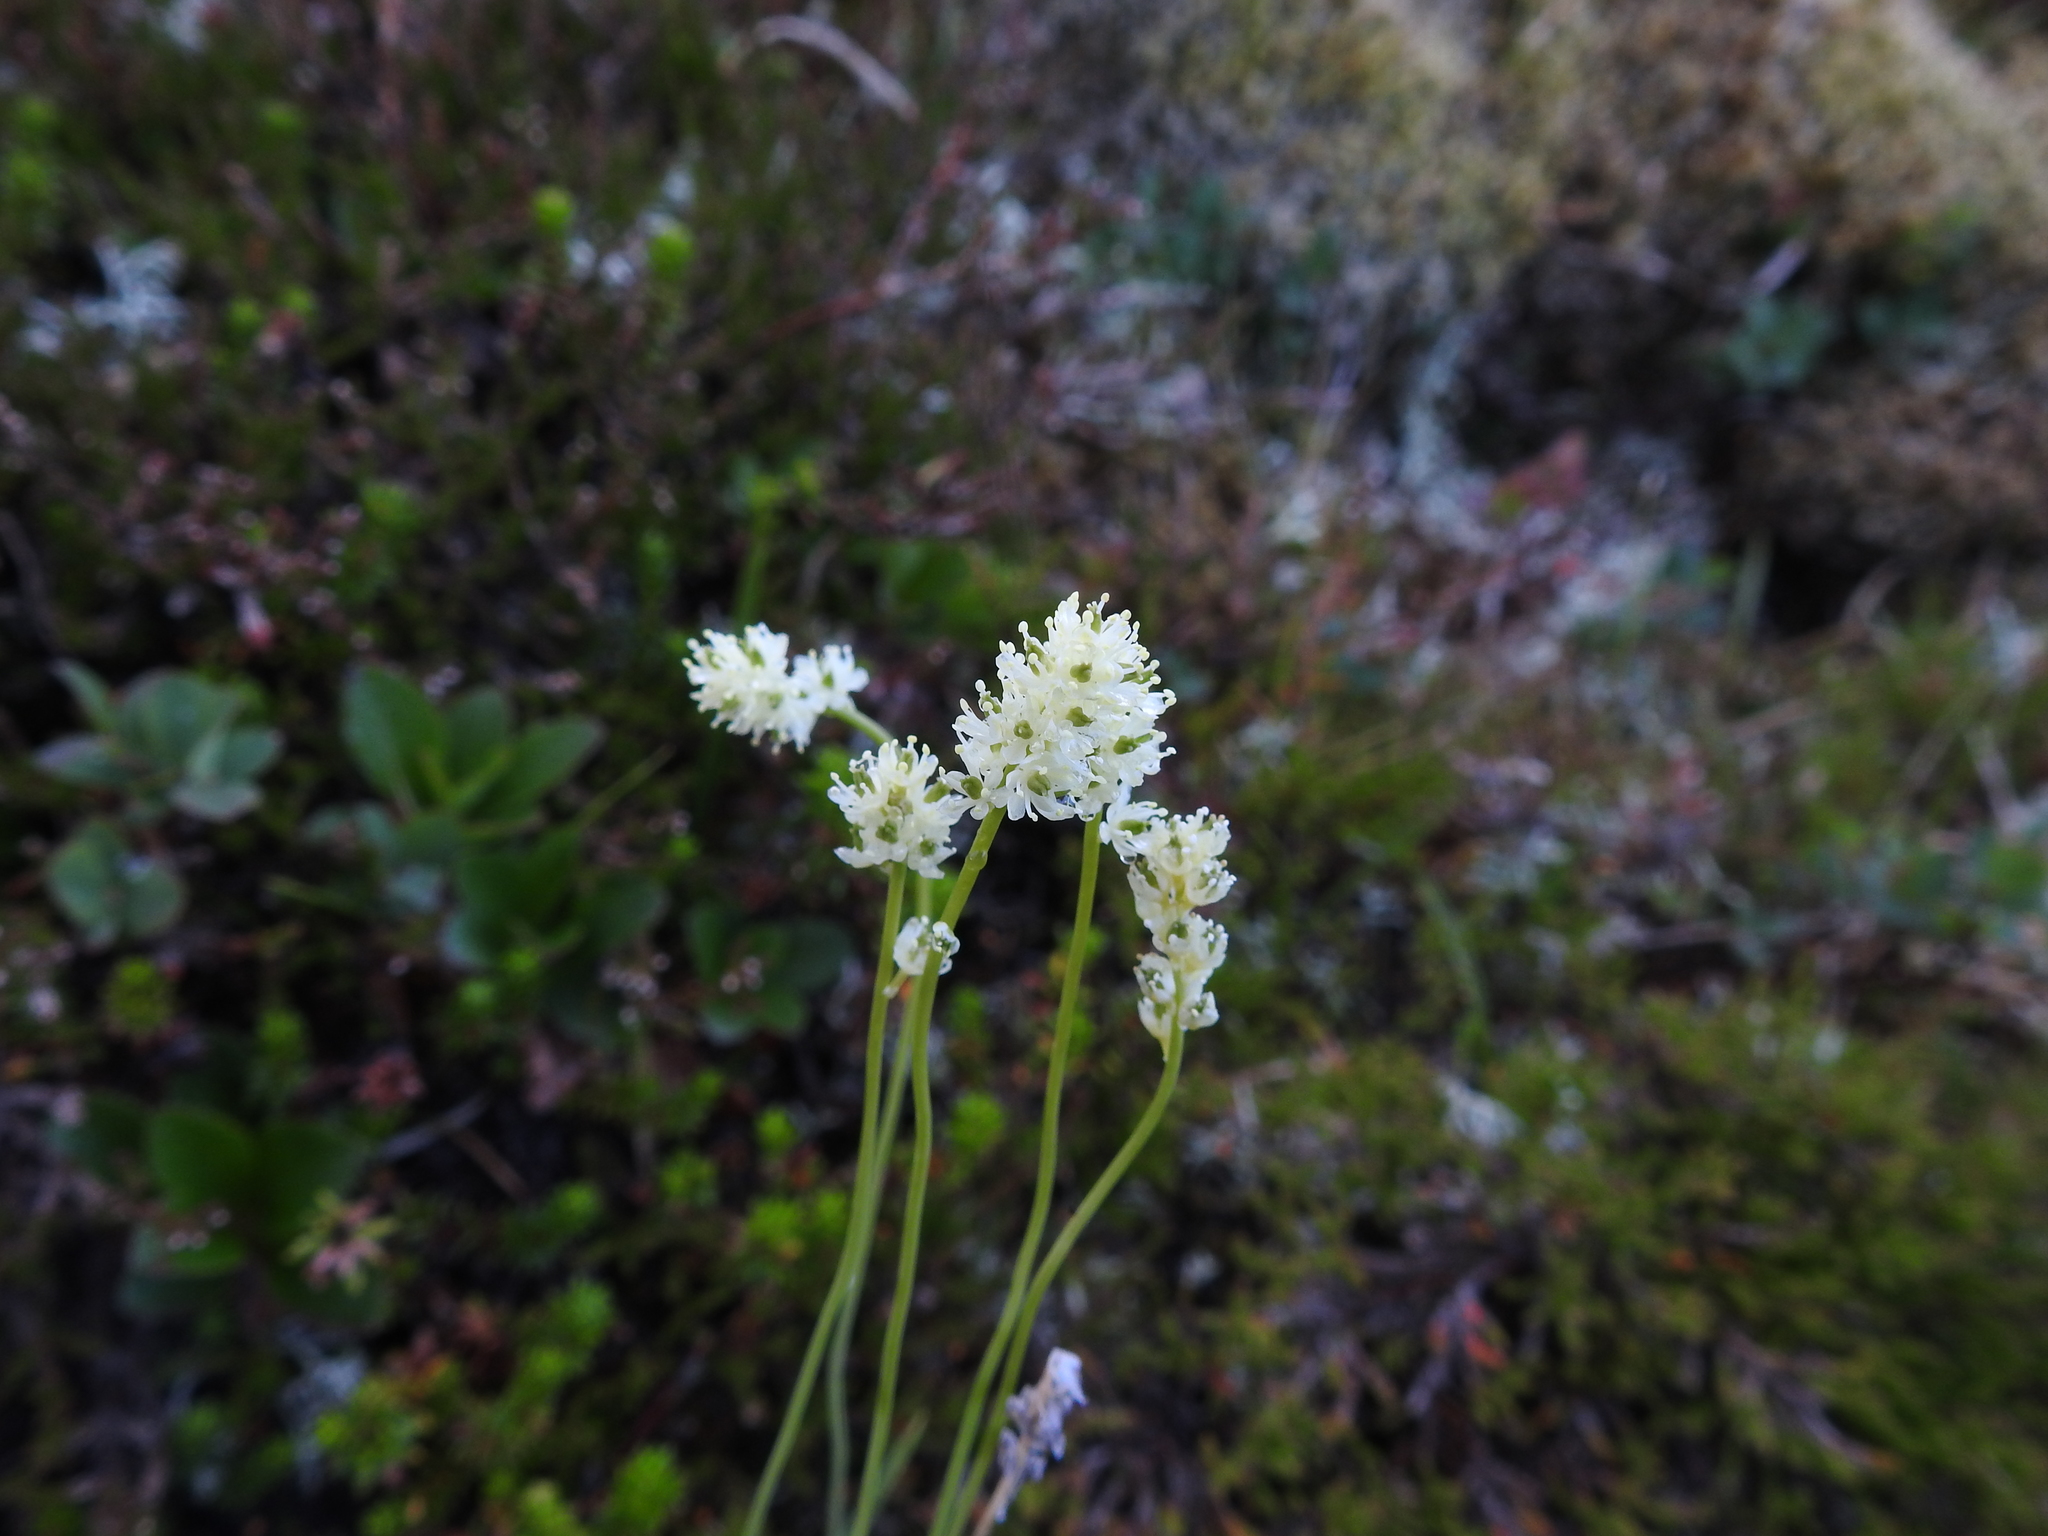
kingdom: Plantae
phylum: Tracheophyta
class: Liliopsida
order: Alismatales
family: Tofieldiaceae
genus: Tofieldia
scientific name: Tofieldia pusilla
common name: Scottish false asphodel
